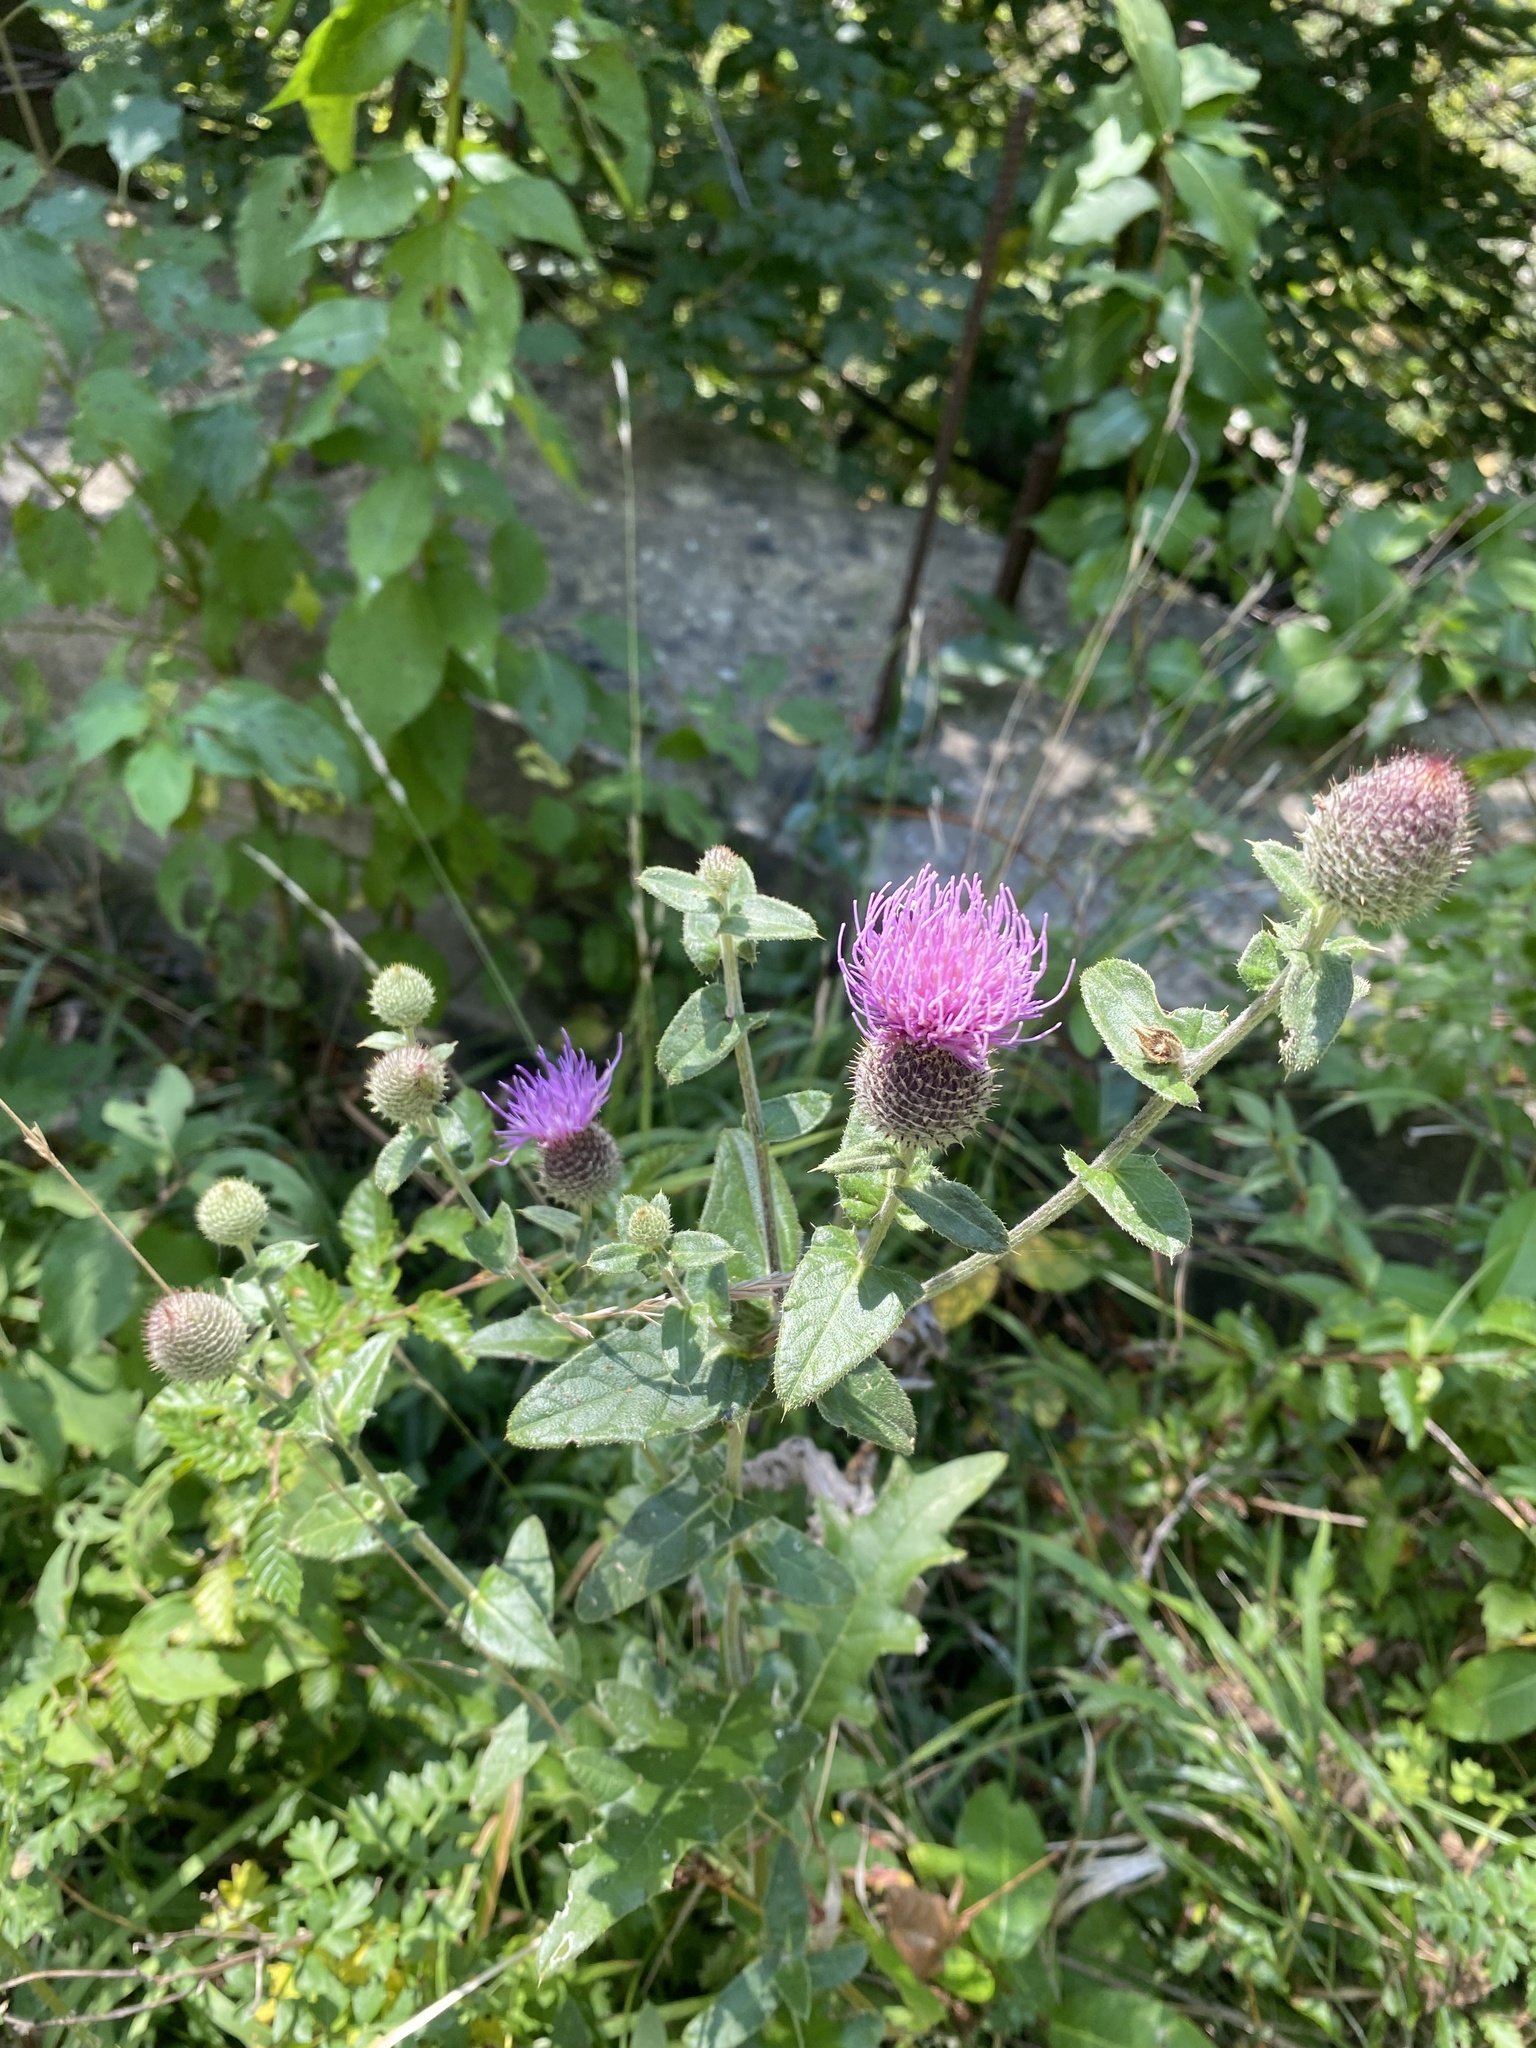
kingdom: Plantae
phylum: Tracheophyta
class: Magnoliopsida
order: Asterales
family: Asteraceae
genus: Lophiolepis
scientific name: Lophiolepis euxina
